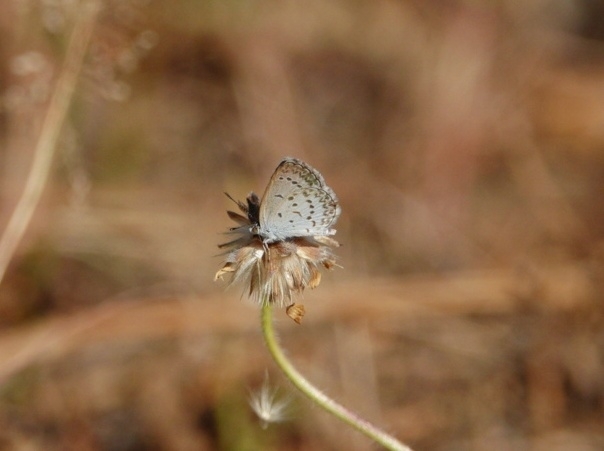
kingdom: Animalia
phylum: Arthropoda
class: Insecta
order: Lepidoptera
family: Lycaenidae
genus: Zizina
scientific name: Zizina otis
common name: Lesser grass blue
